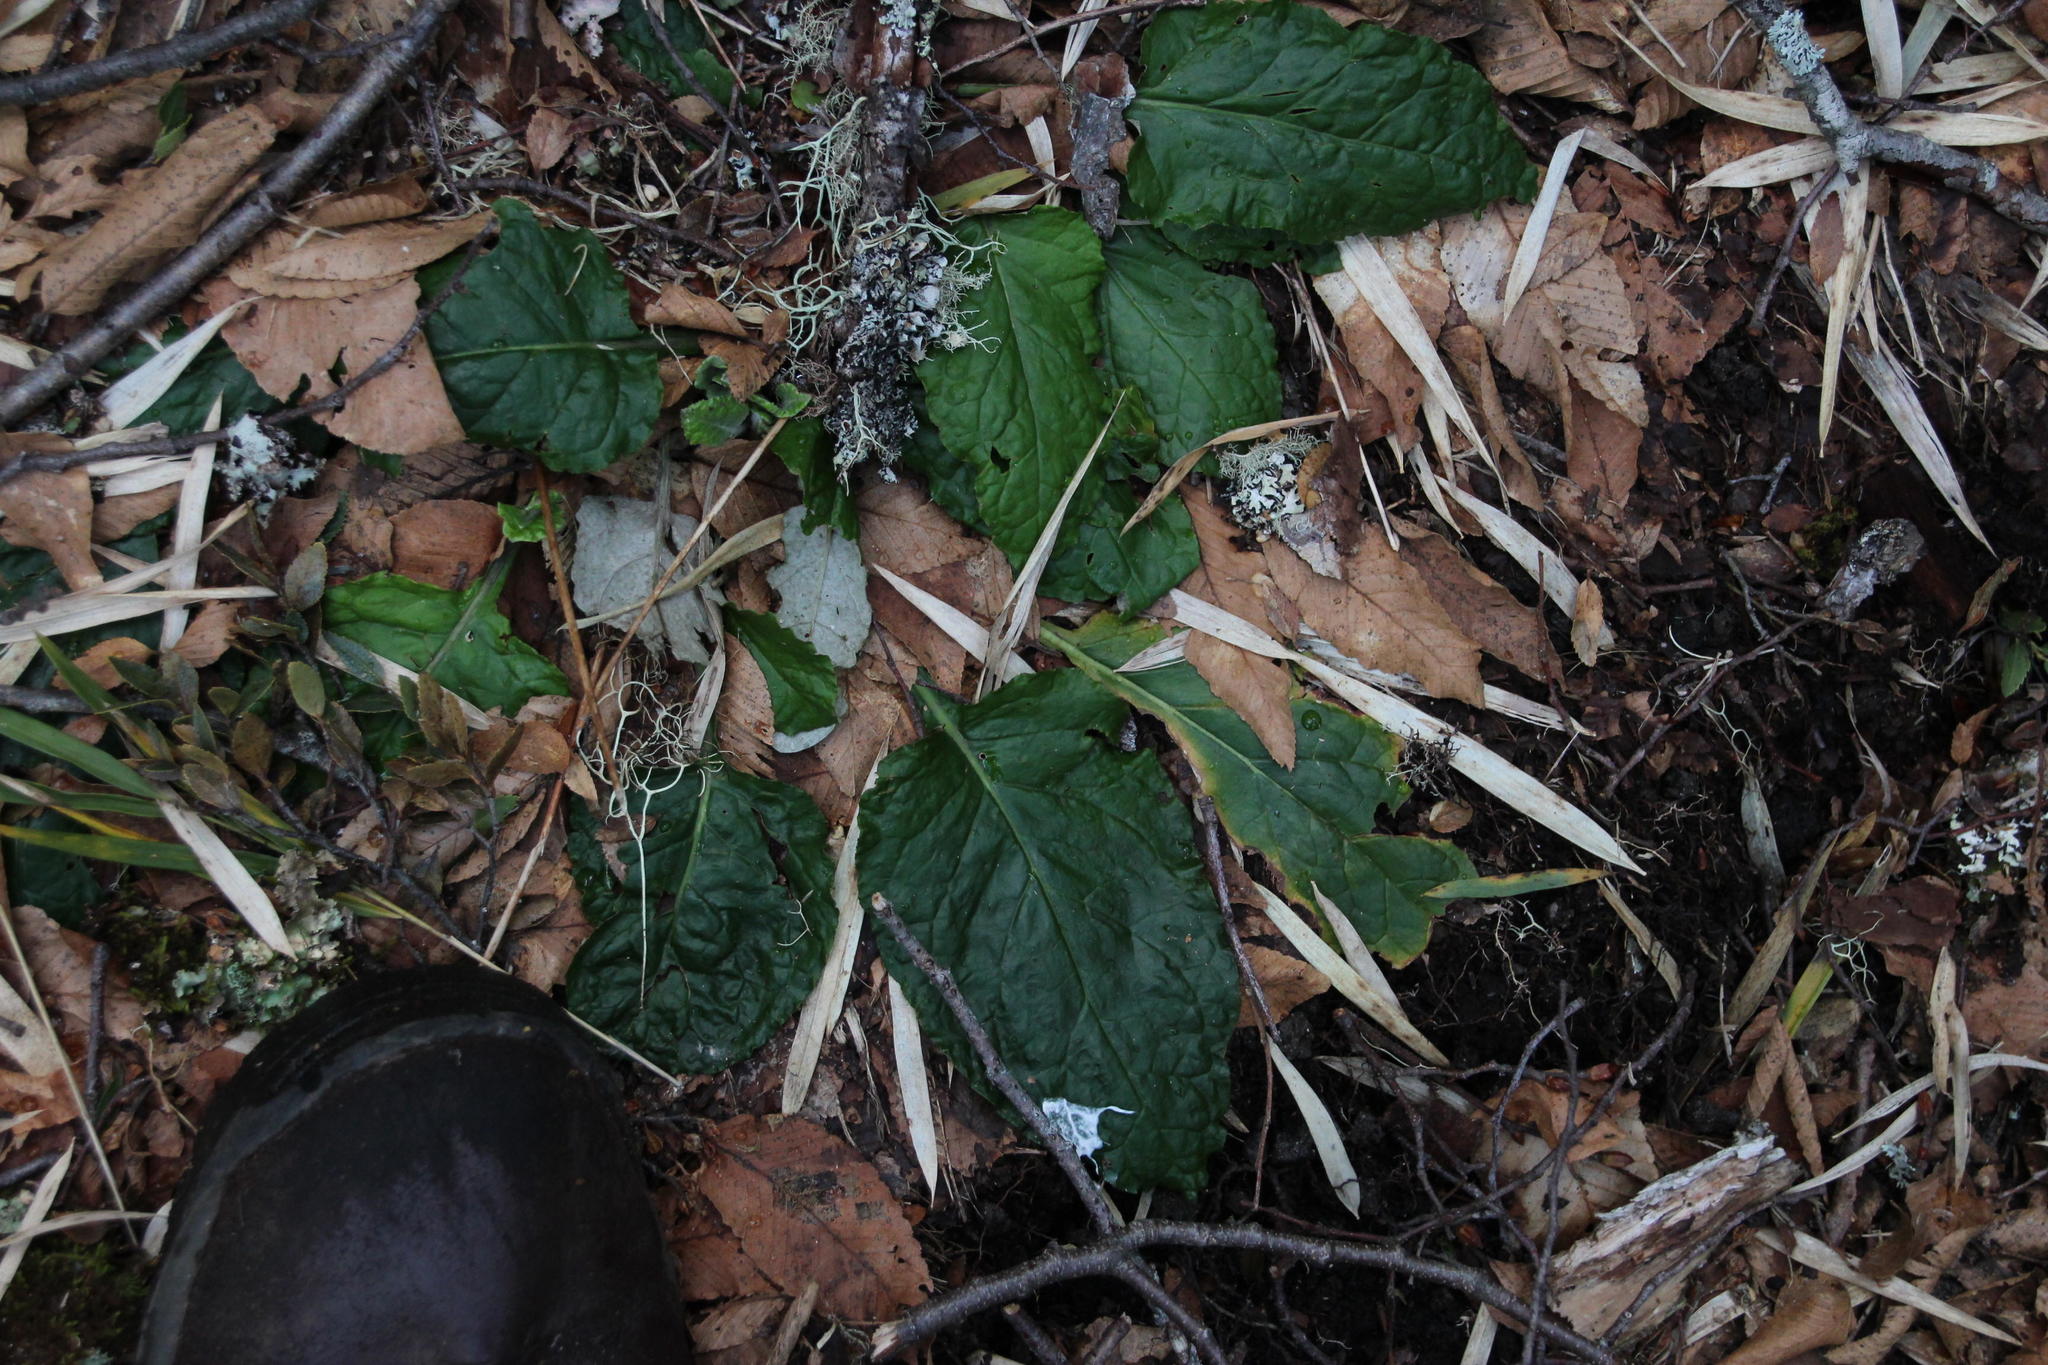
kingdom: Plantae
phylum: Tracheophyta
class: Magnoliopsida
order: Asterales
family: Asteraceae
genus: Adenocaulon
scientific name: Adenocaulon chilense
